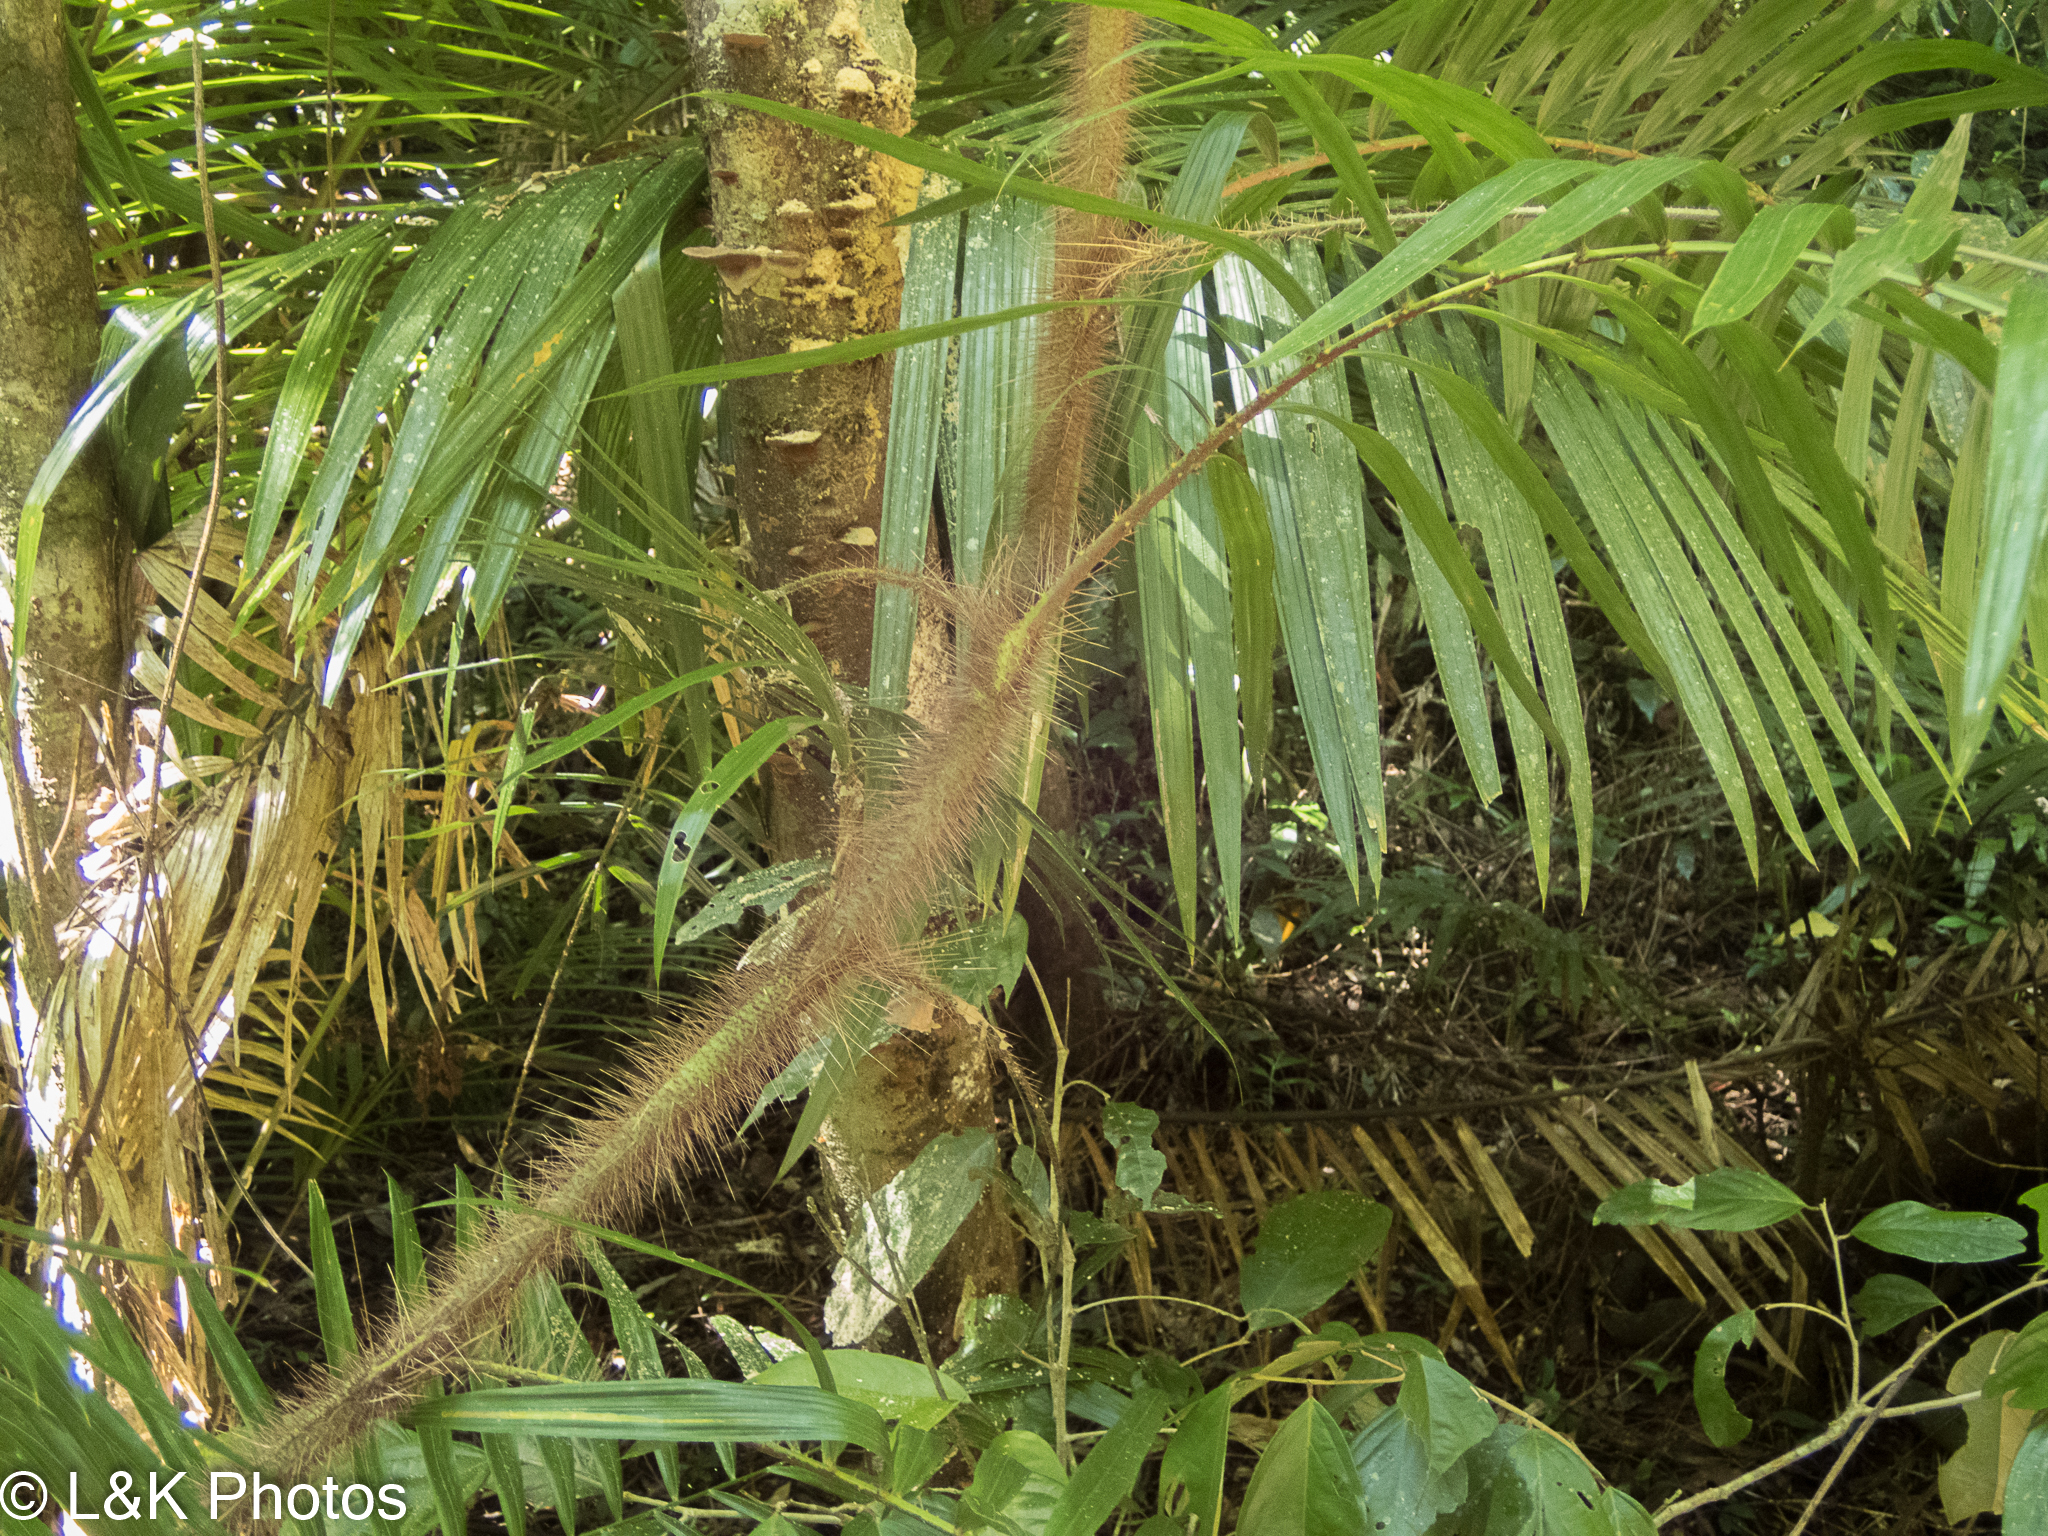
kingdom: Plantae
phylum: Tracheophyta
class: Liliopsida
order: Arecales
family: Arecaceae
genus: Calamus
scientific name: Calamus australis
